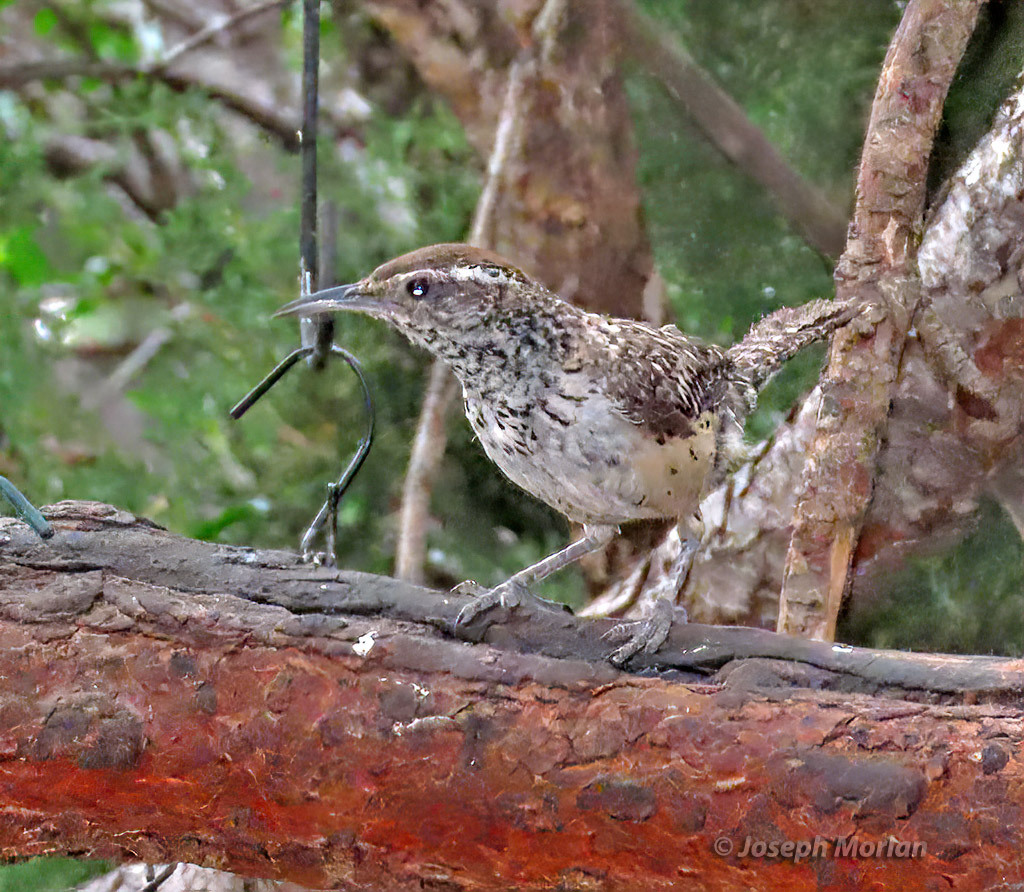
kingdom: Animalia
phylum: Chordata
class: Aves
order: Passeriformes
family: Troglodytidae
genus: Campylorhynchus
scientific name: Campylorhynchus brunneicapillus
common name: Cactus wren
